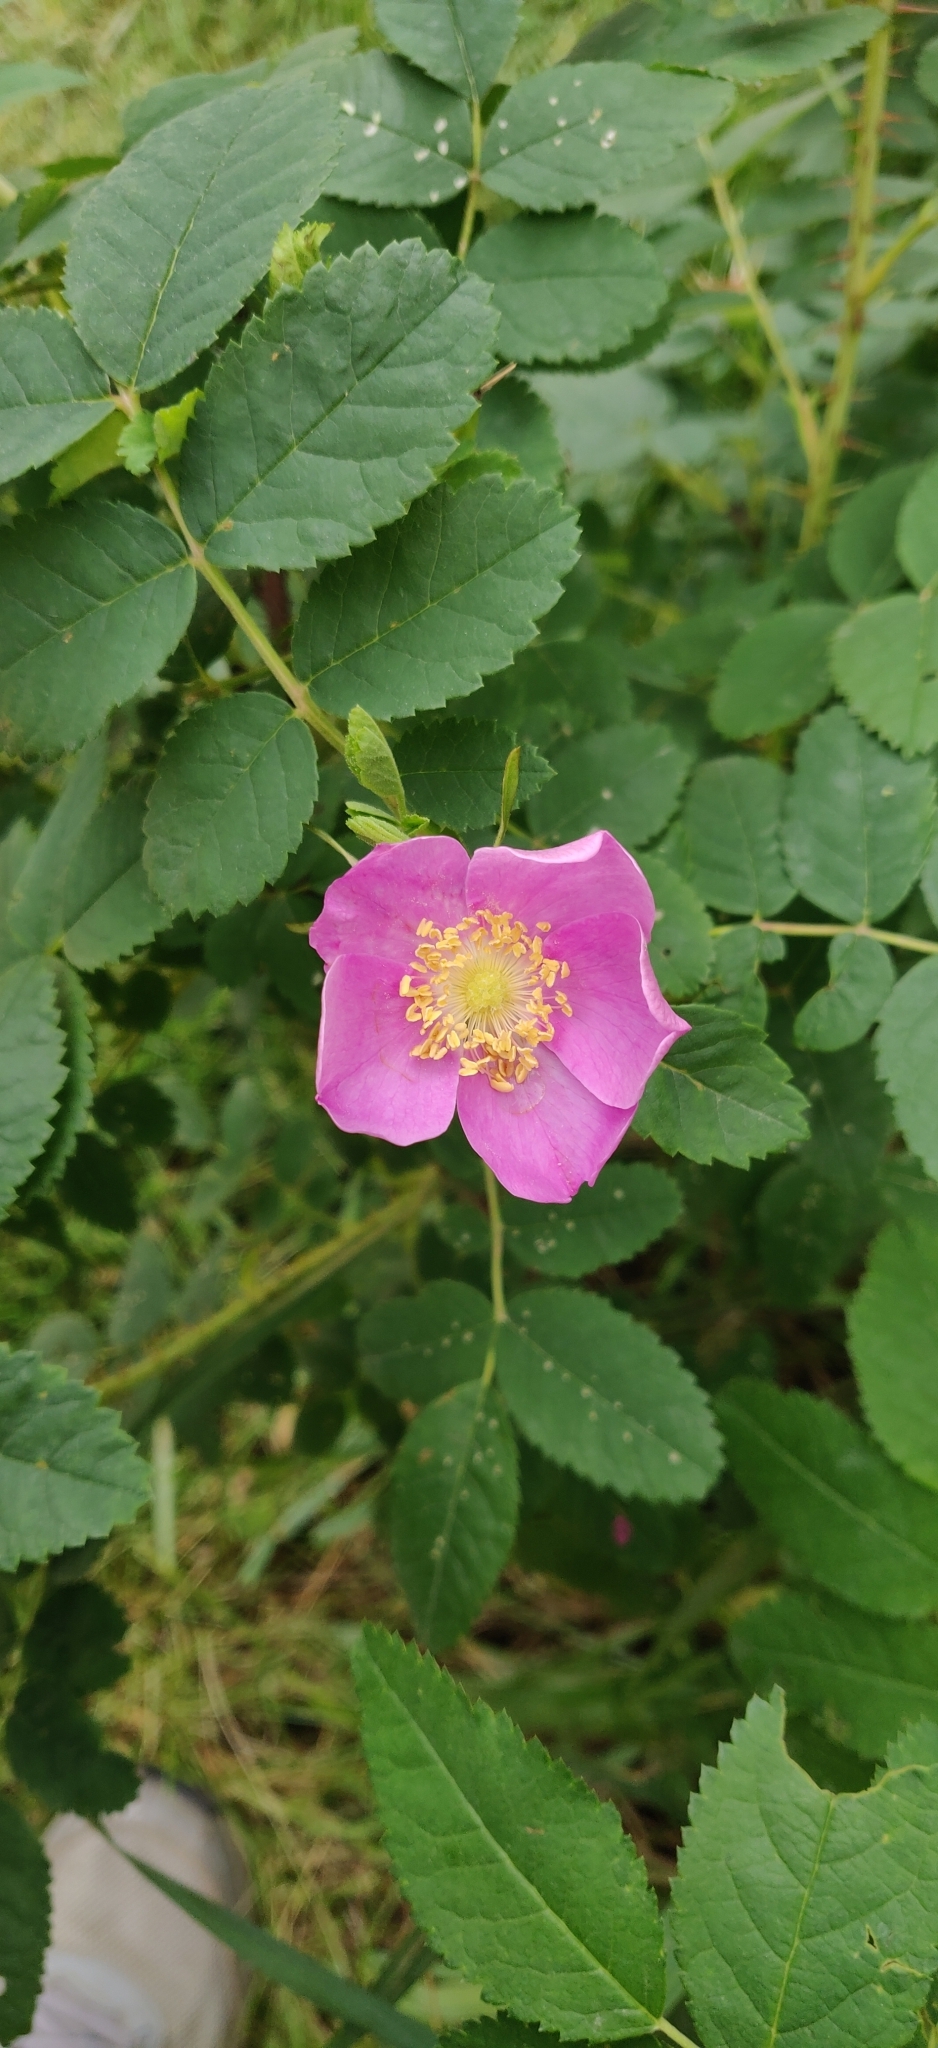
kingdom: Plantae
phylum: Tracheophyta
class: Magnoliopsida
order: Rosales
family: Rosaceae
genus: Rosa
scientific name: Rosa woodsii
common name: Woods's rose
